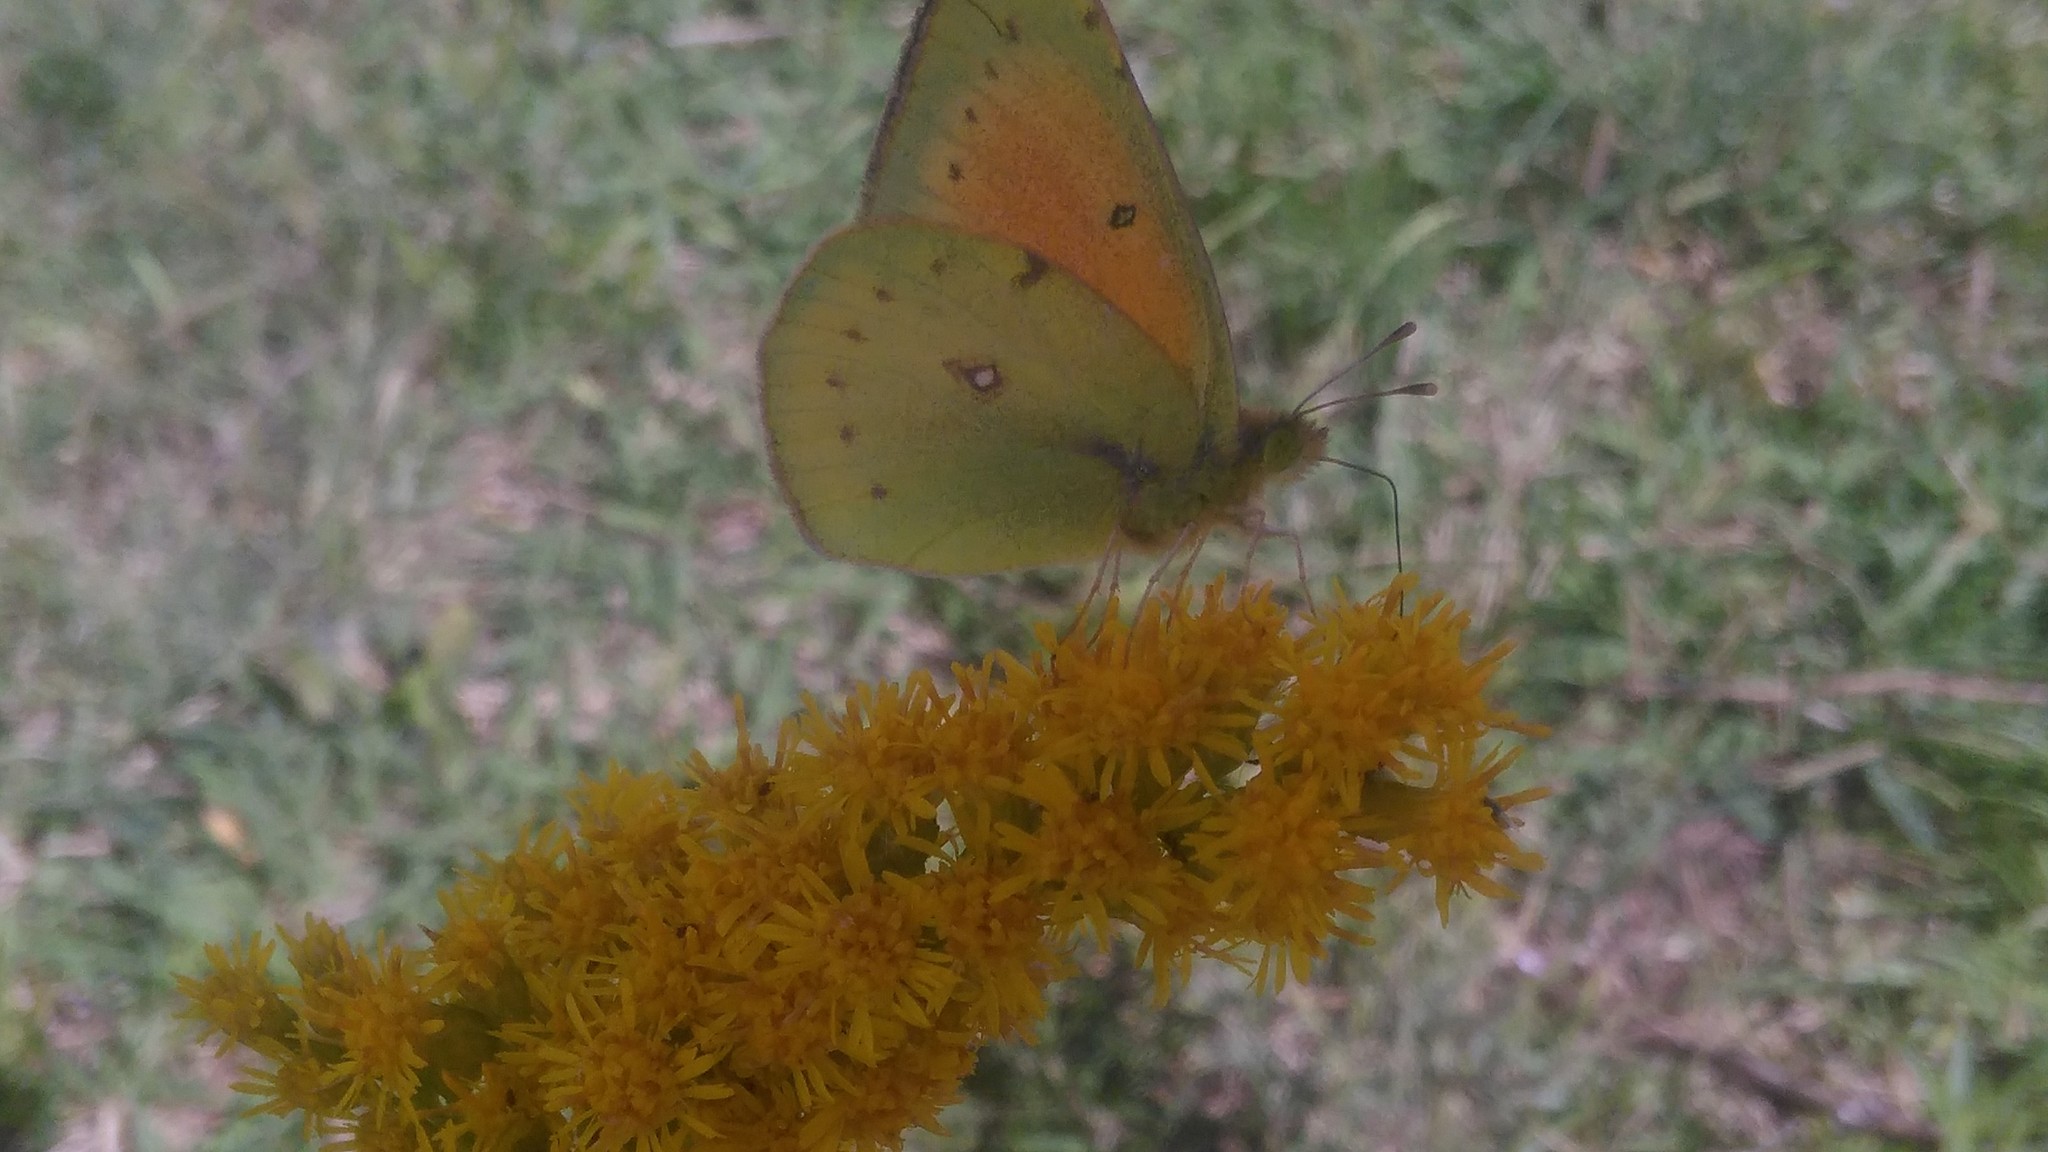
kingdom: Animalia
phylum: Arthropoda
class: Insecta
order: Lepidoptera
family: Pieridae
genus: Colias
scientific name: Colias lesbia
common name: Lesbia clouded yellow
